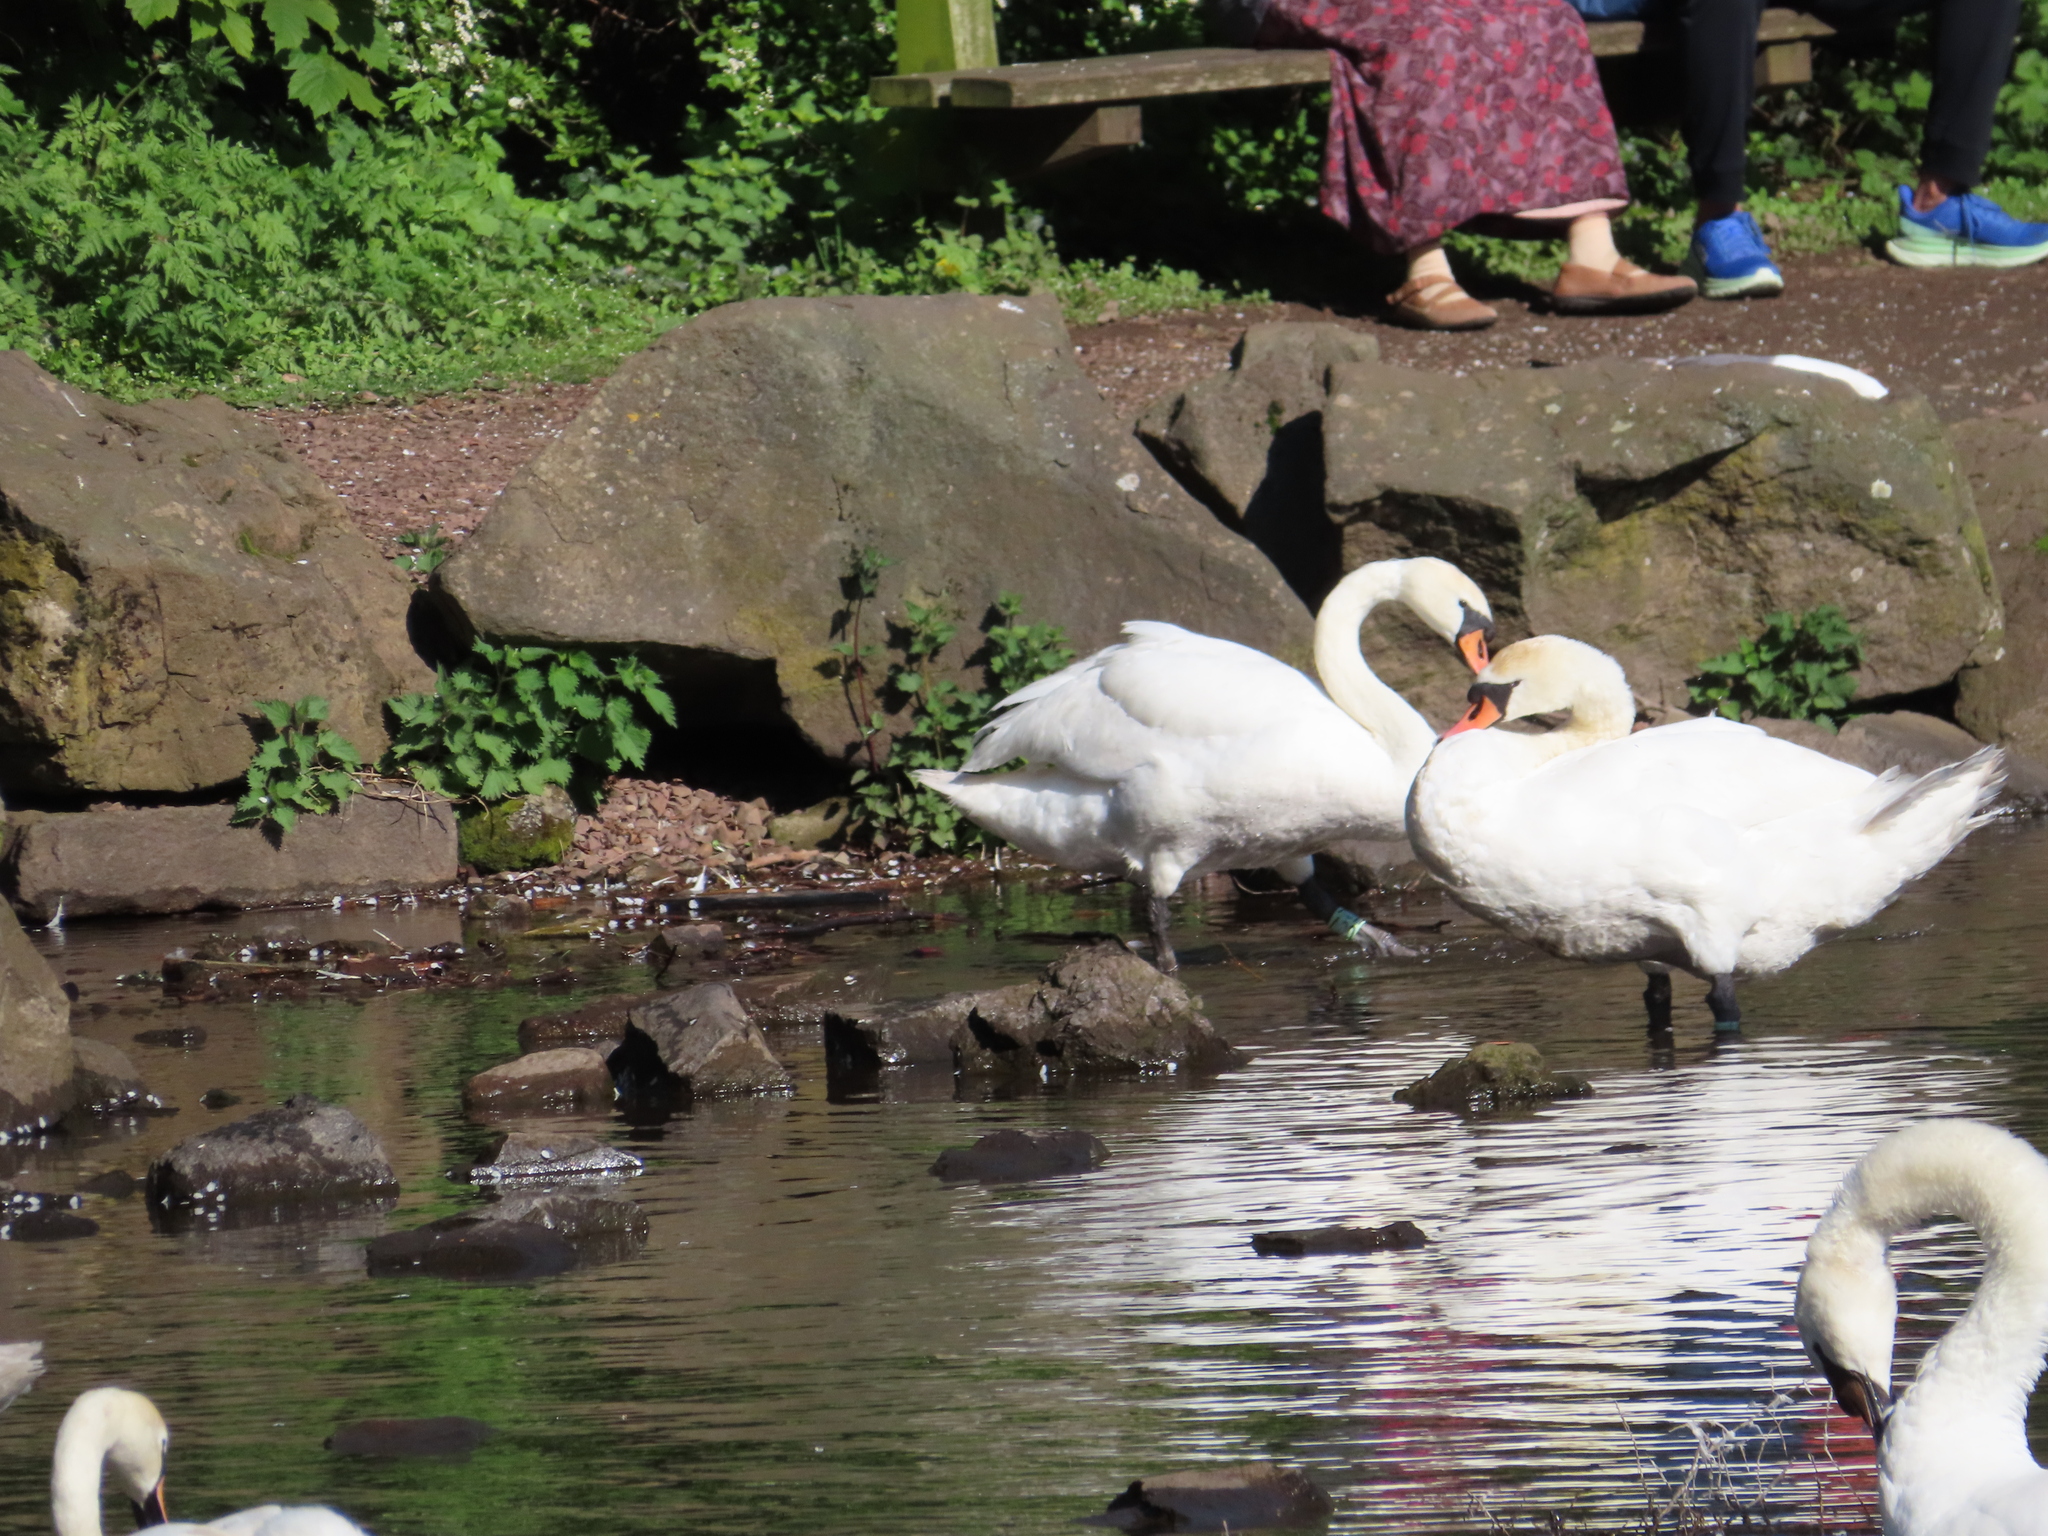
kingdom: Animalia
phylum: Chordata
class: Aves
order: Anseriformes
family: Anatidae
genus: Cygnus
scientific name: Cygnus olor
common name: Mute swan
